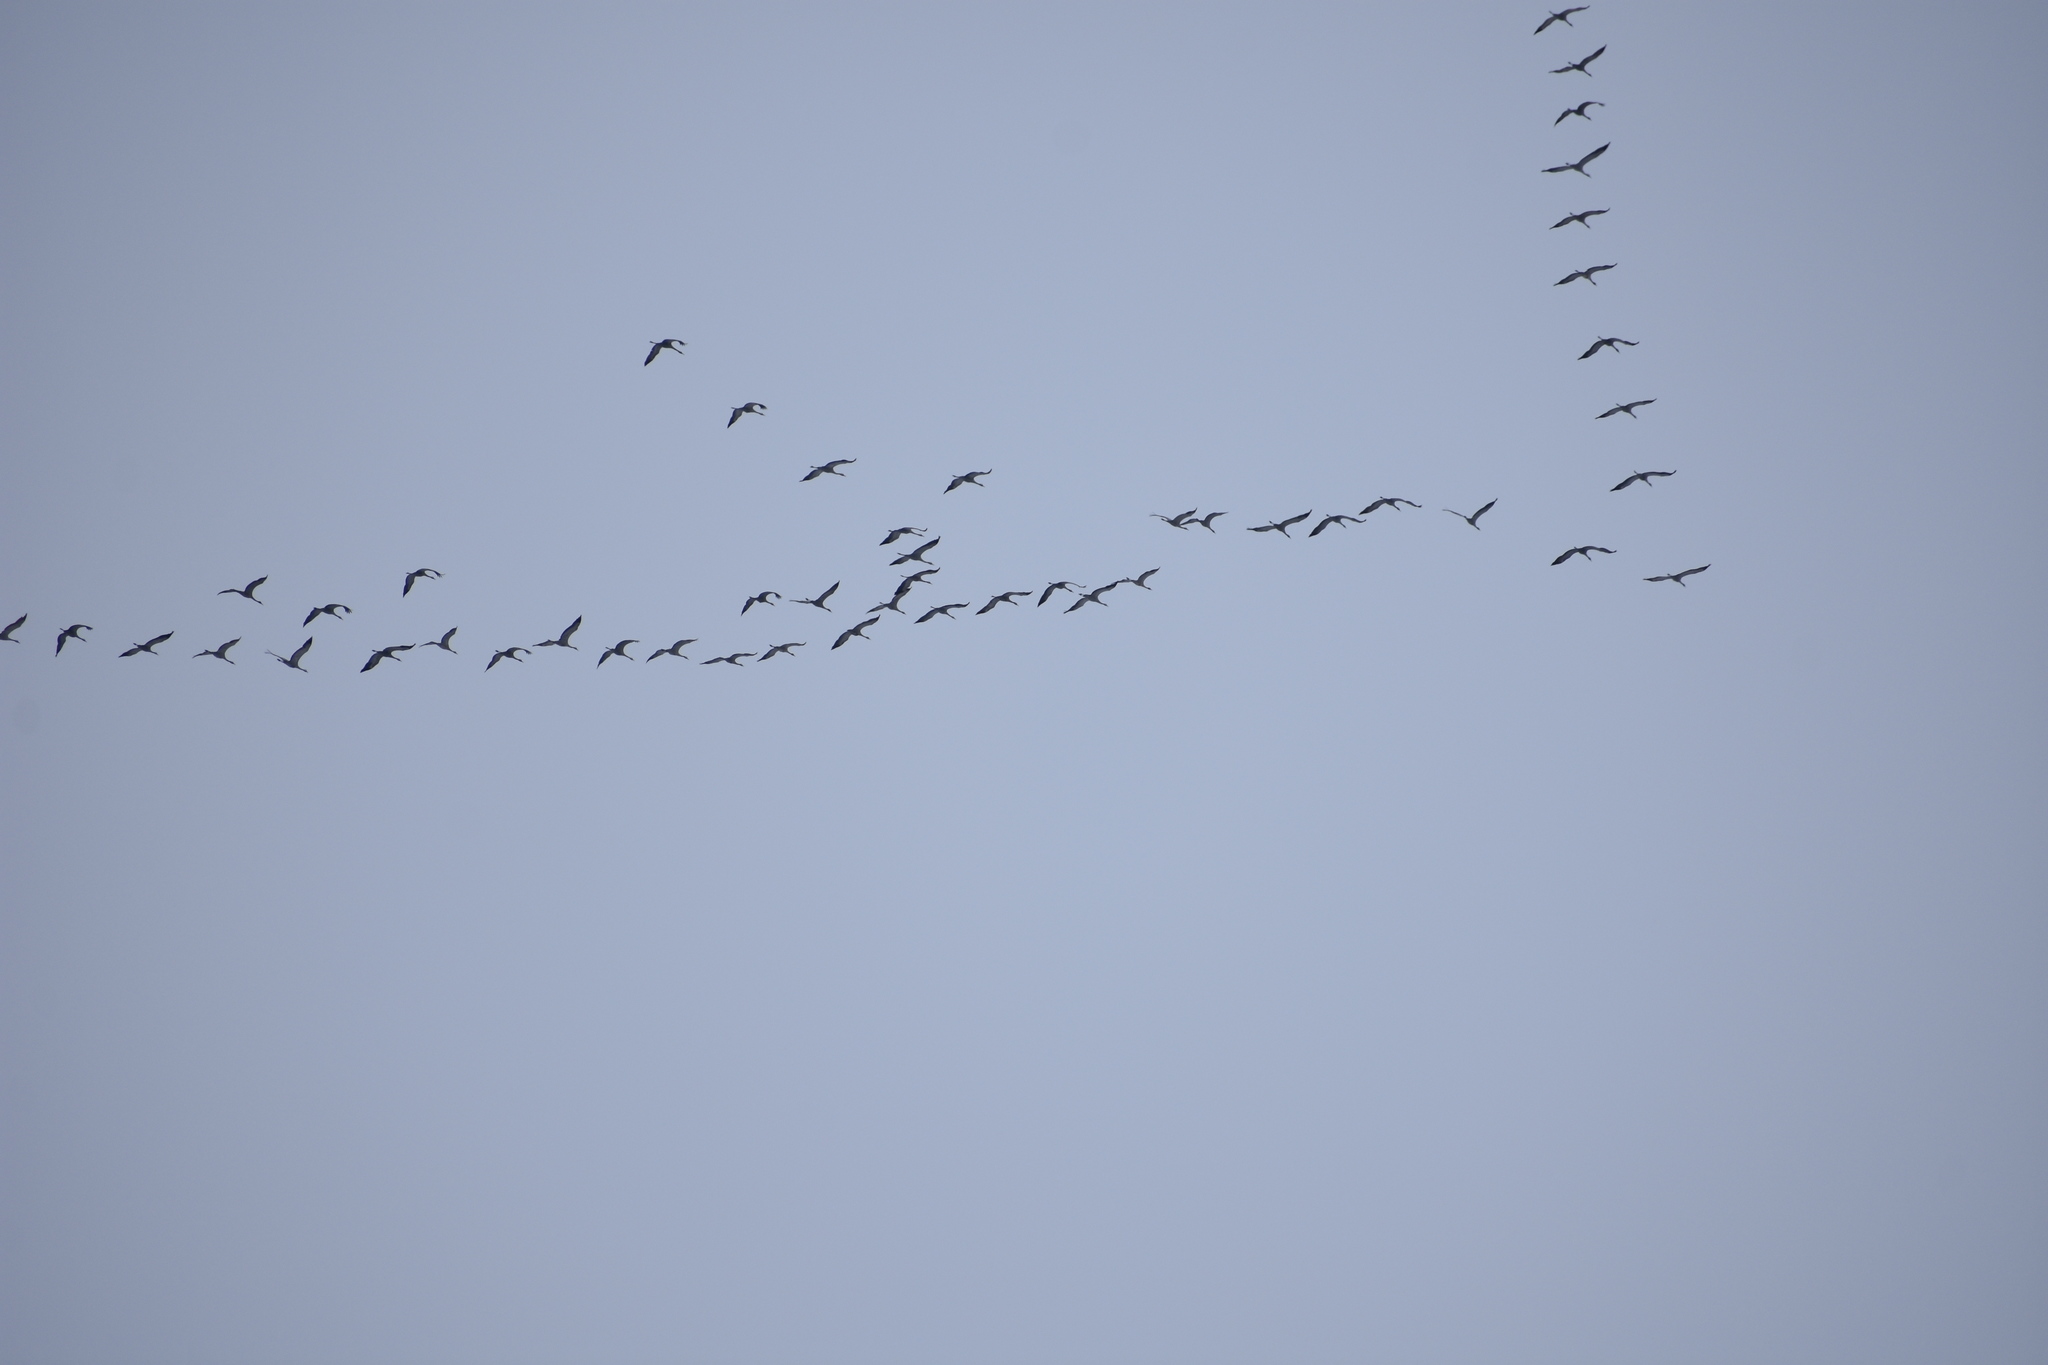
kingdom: Animalia
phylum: Chordata
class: Aves
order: Gruiformes
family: Gruidae
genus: Grus
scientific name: Grus grus
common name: Common crane
